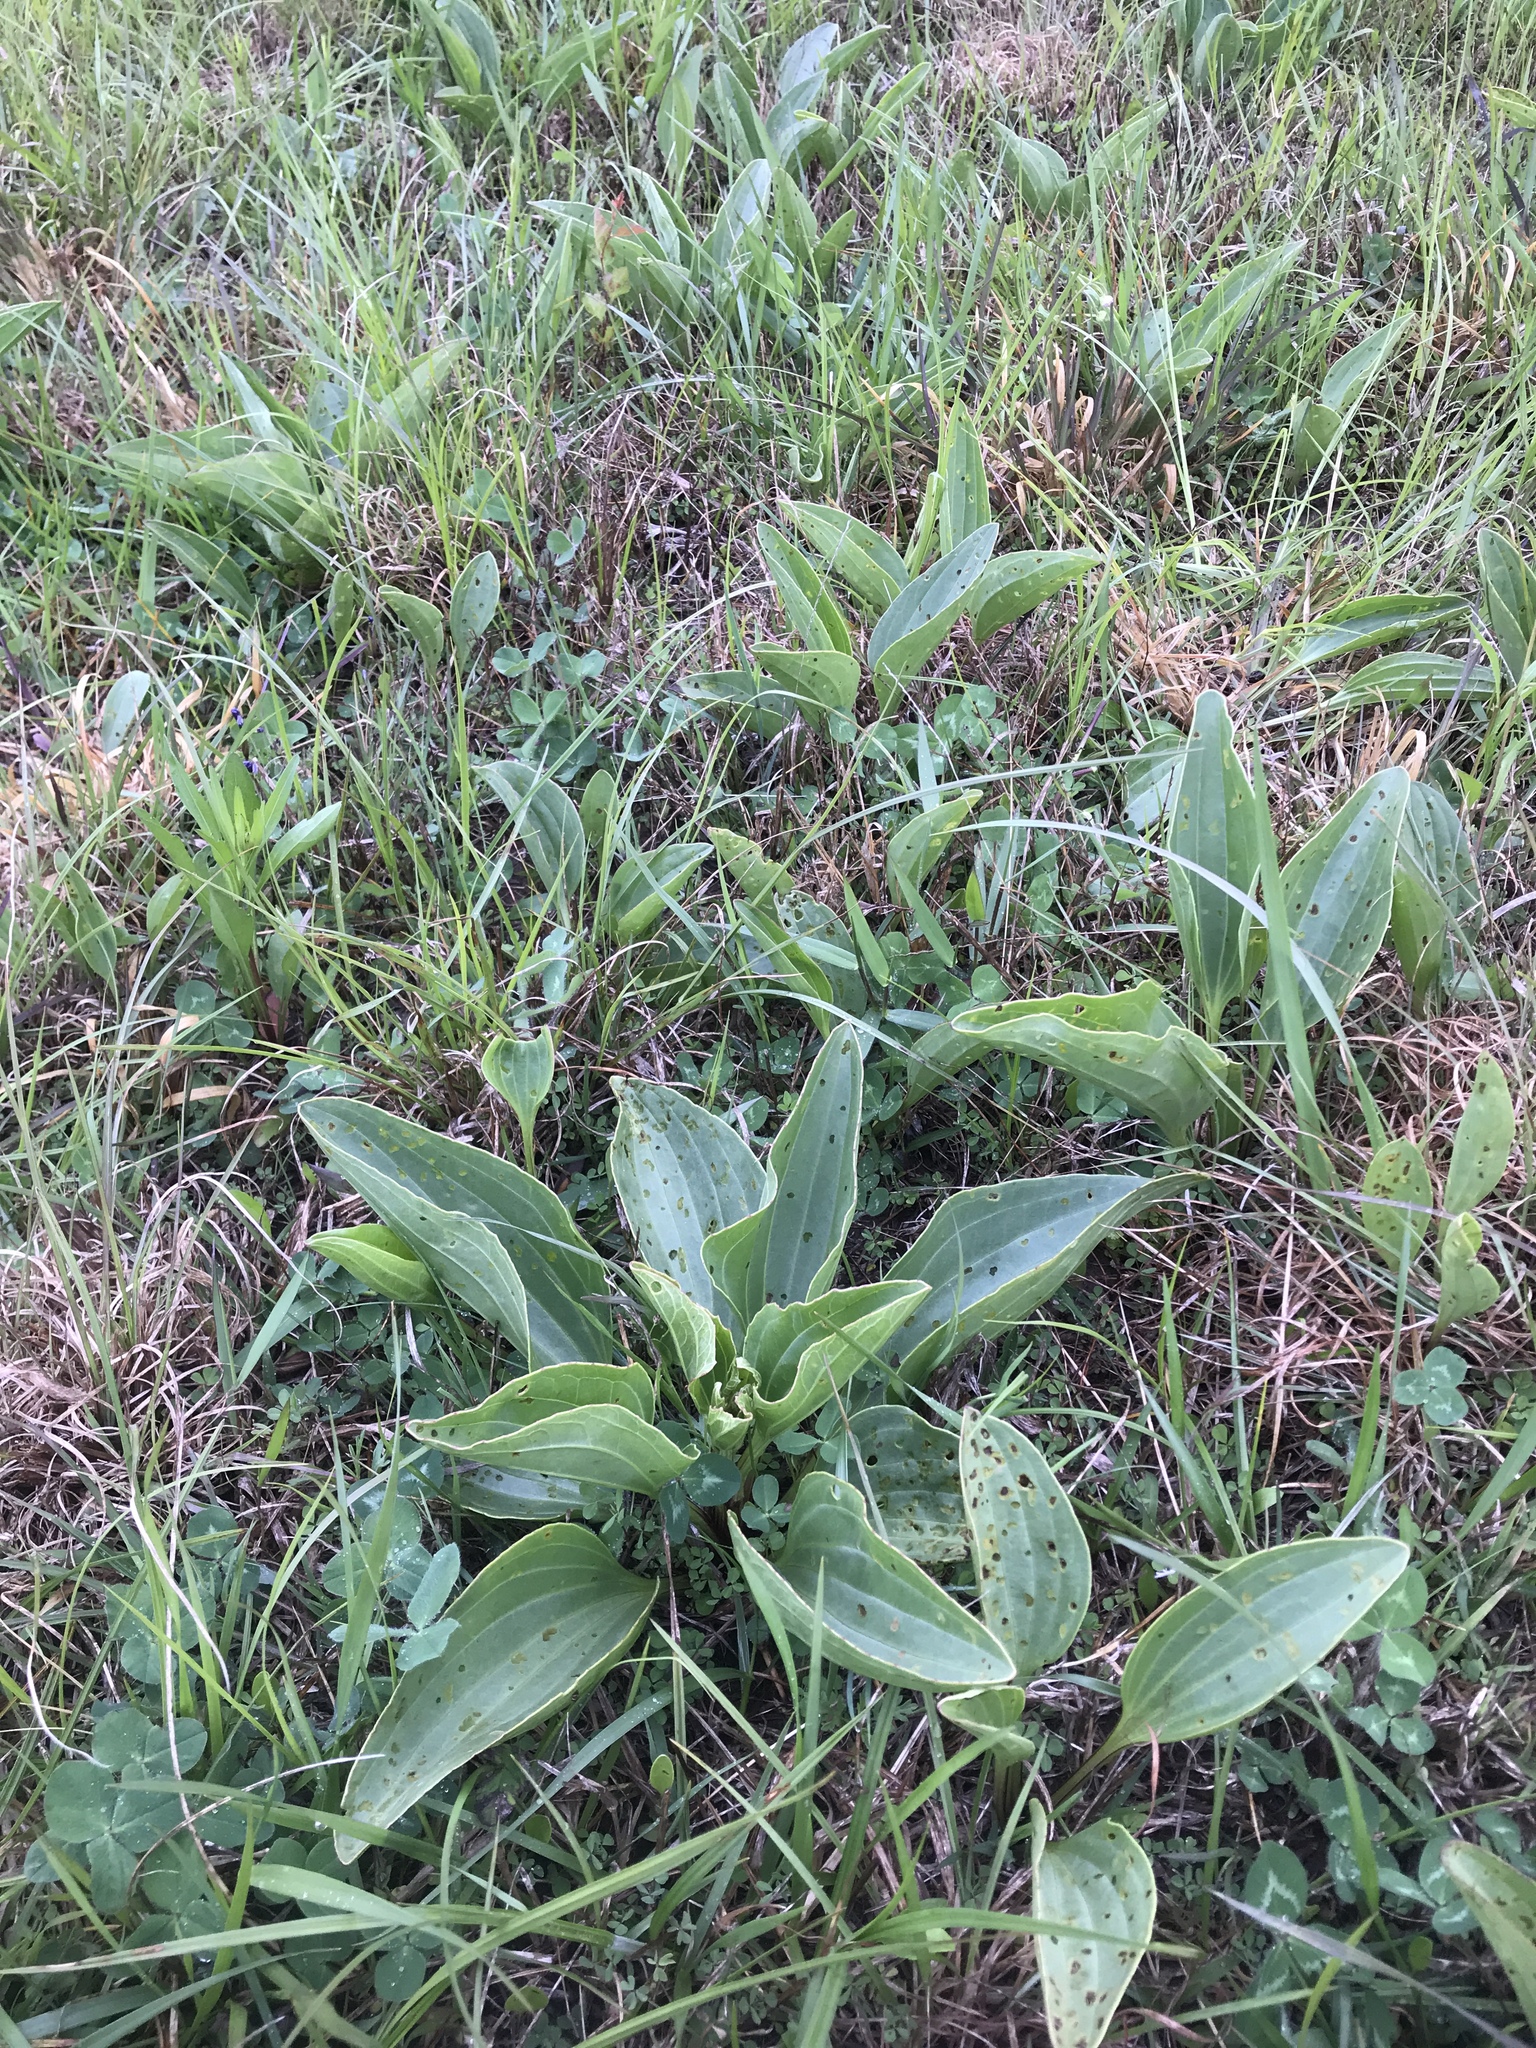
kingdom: Plantae
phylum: Tracheophyta
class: Magnoliopsida
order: Asterales
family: Asteraceae
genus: Arnoglossum
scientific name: Arnoglossum plantagineum
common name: Groove-stemmed indian-plantain
